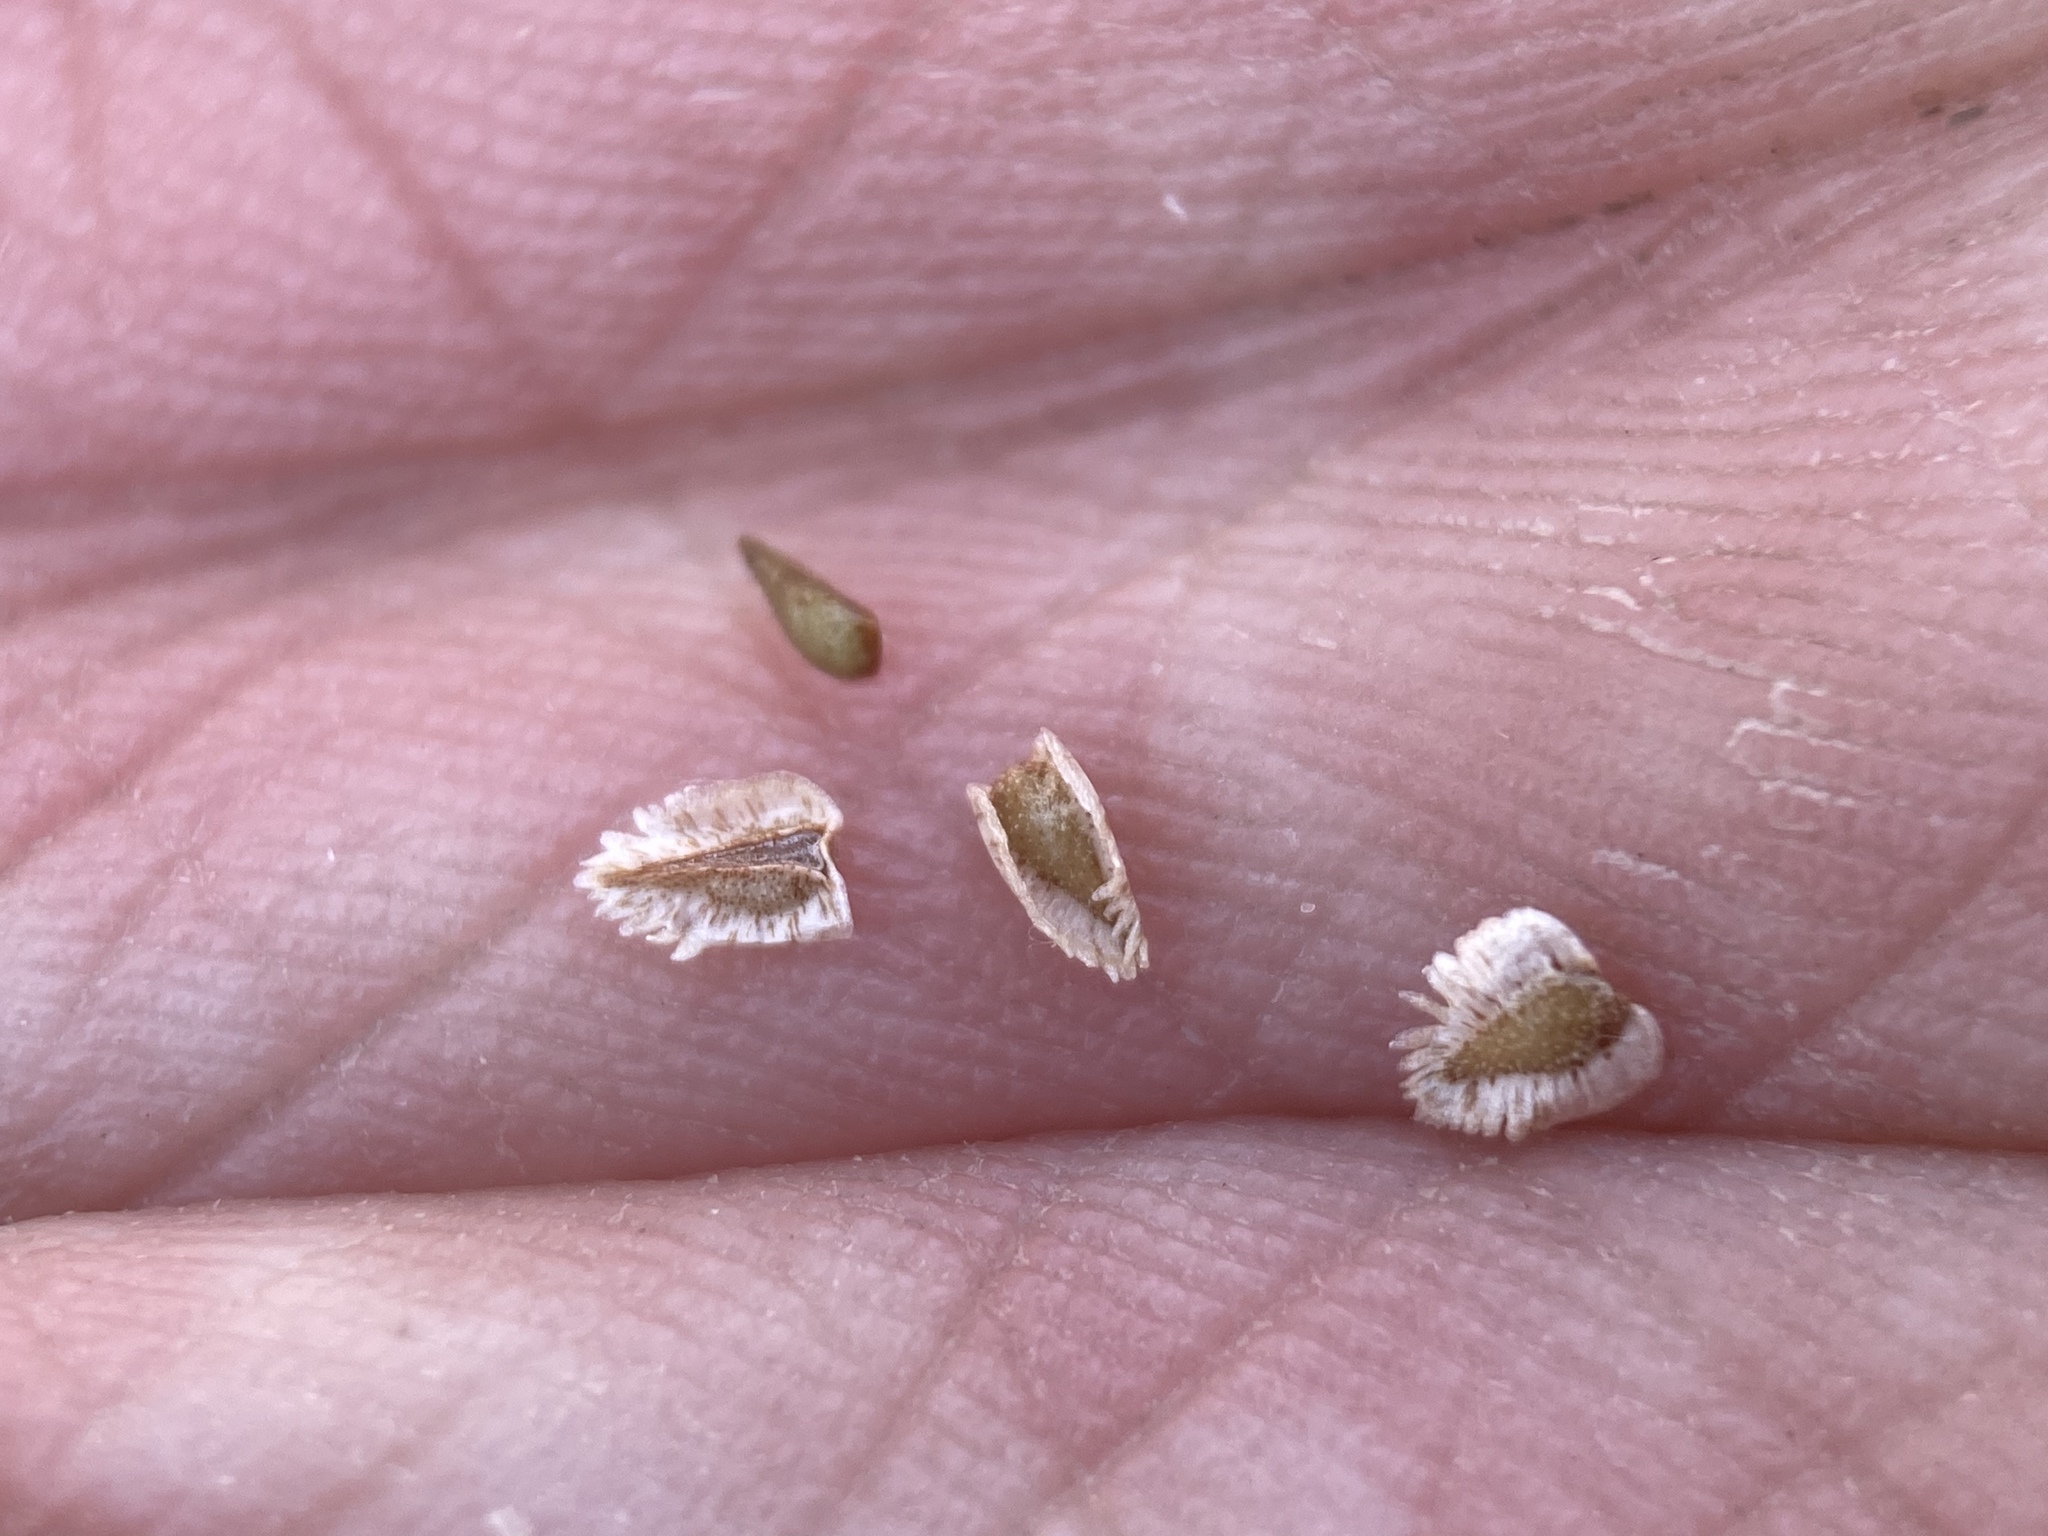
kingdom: Plantae
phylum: Tracheophyta
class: Magnoliopsida
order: Boraginales
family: Boraginaceae
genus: Cryptantha
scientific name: Cryptantha pterocarya
